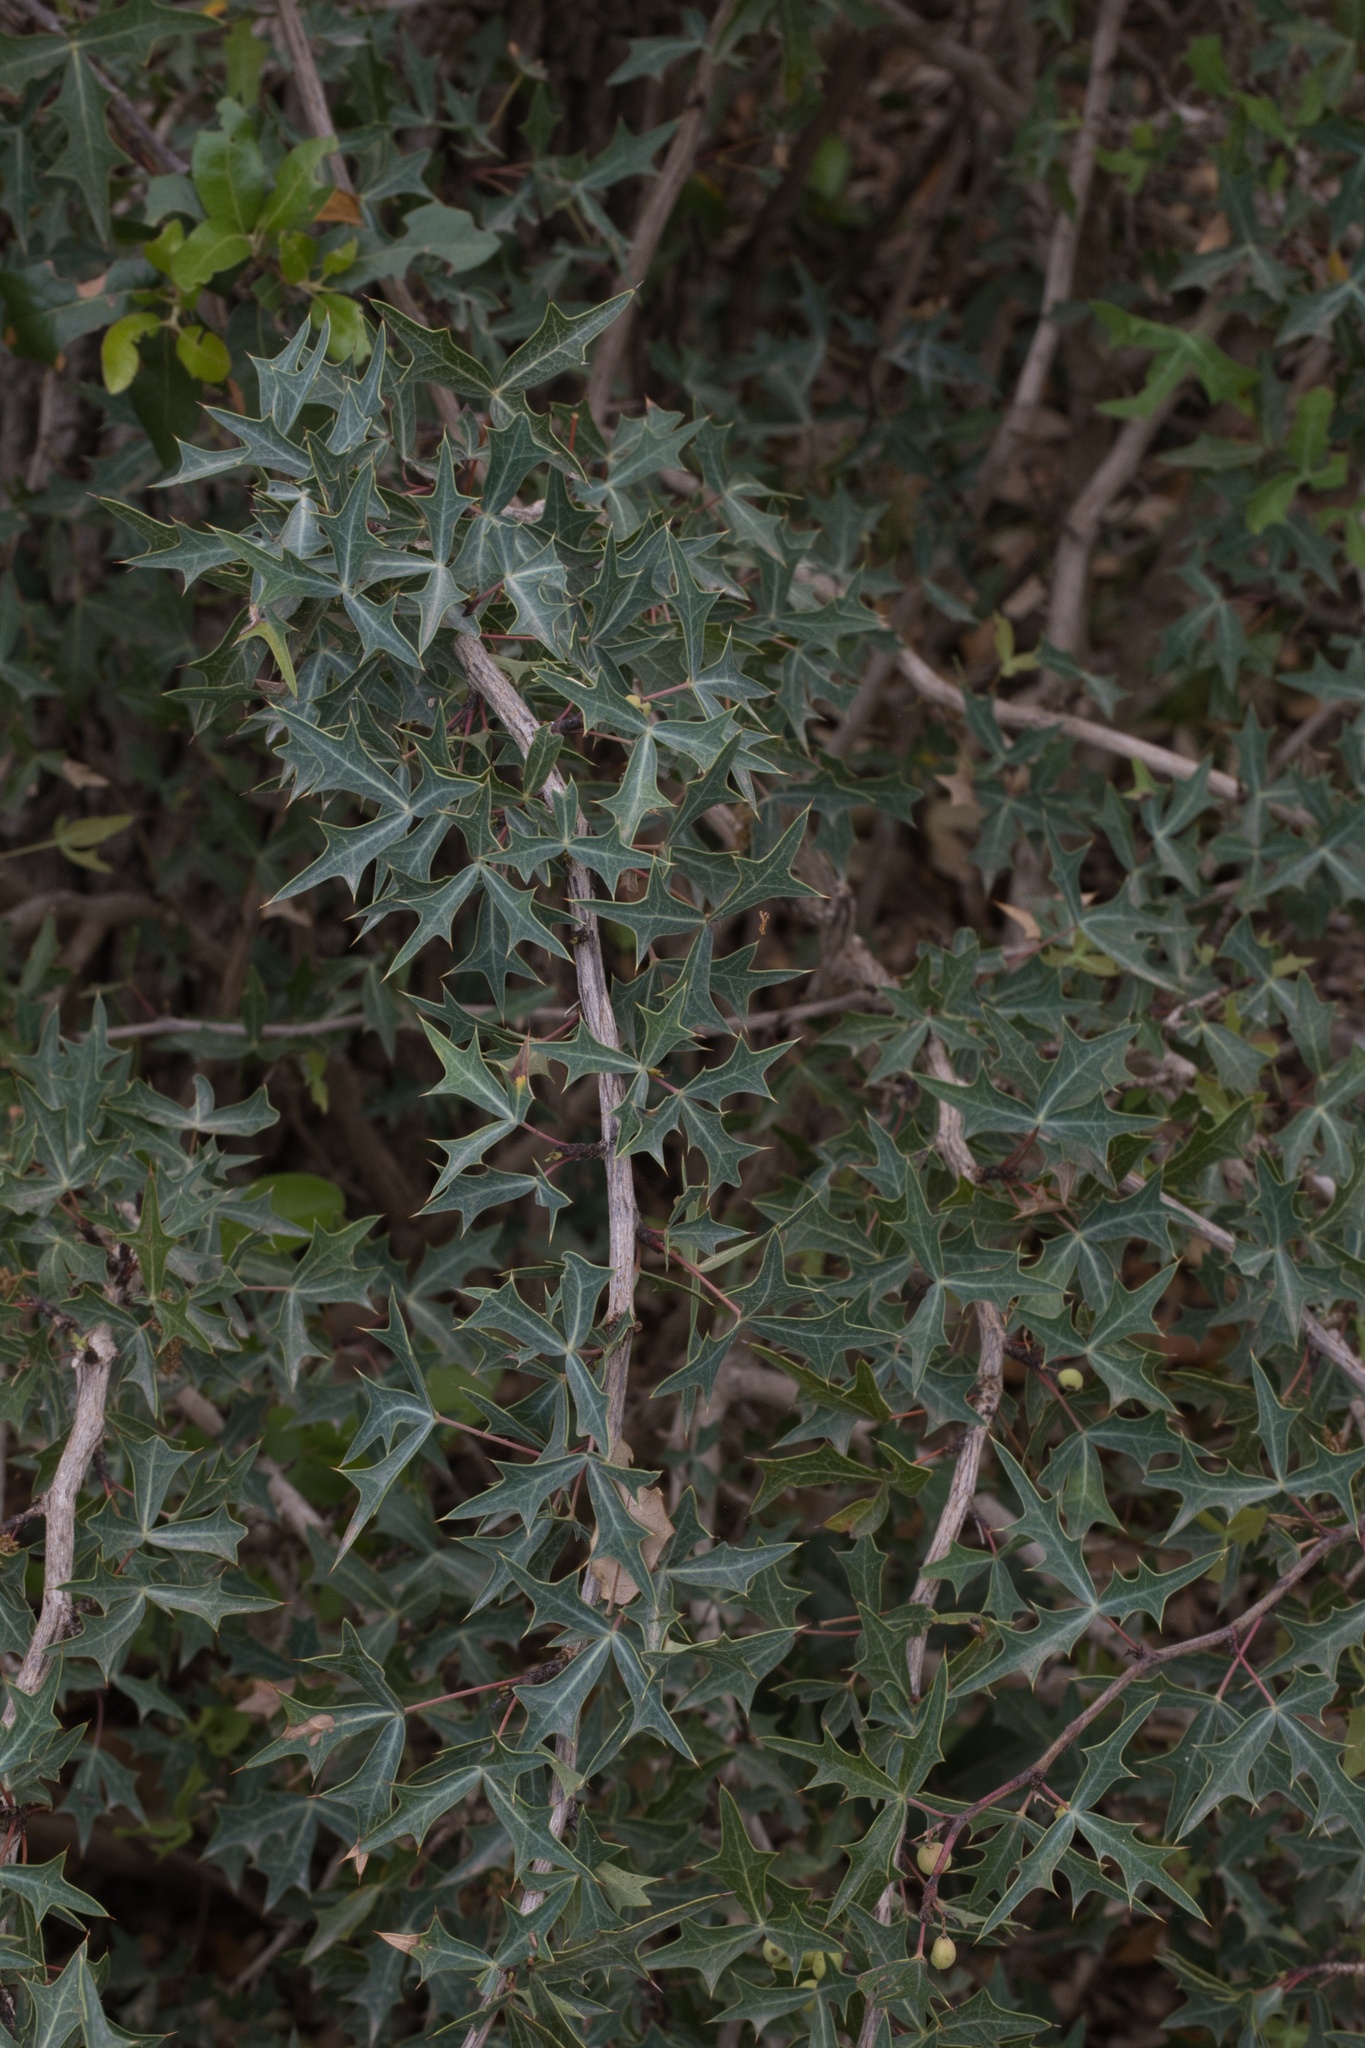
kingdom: Plantae
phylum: Tracheophyta
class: Magnoliopsida
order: Ranunculales
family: Berberidaceae
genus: Alloberberis
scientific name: Alloberberis trifoliolata
